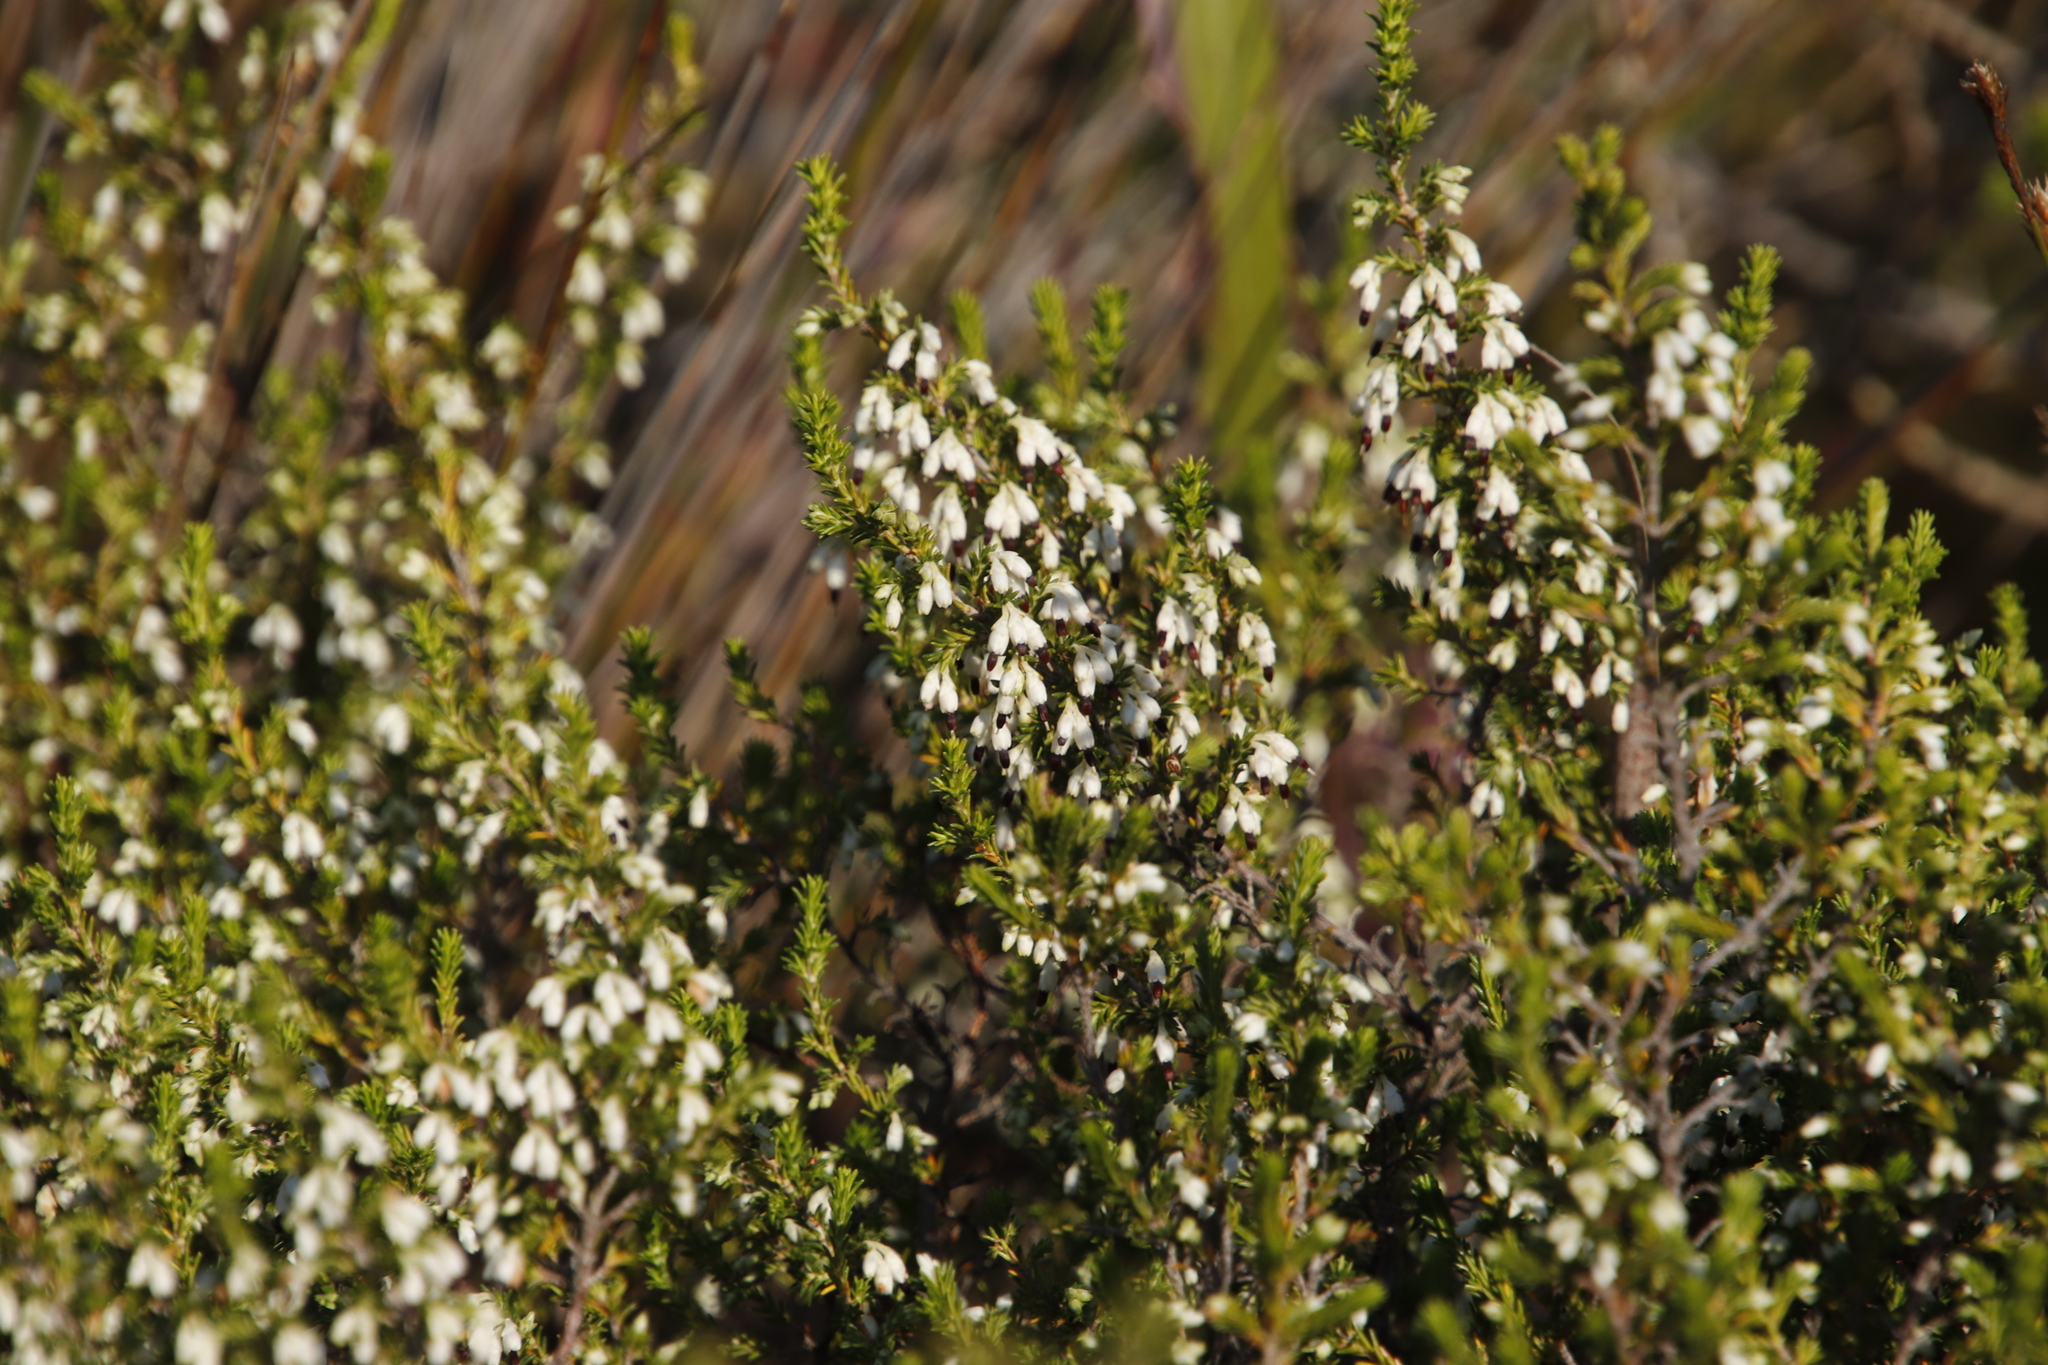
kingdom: Plantae
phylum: Tracheophyta
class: Magnoliopsida
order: Ericales
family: Ericaceae
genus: Erica
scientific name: Erica imbricata
